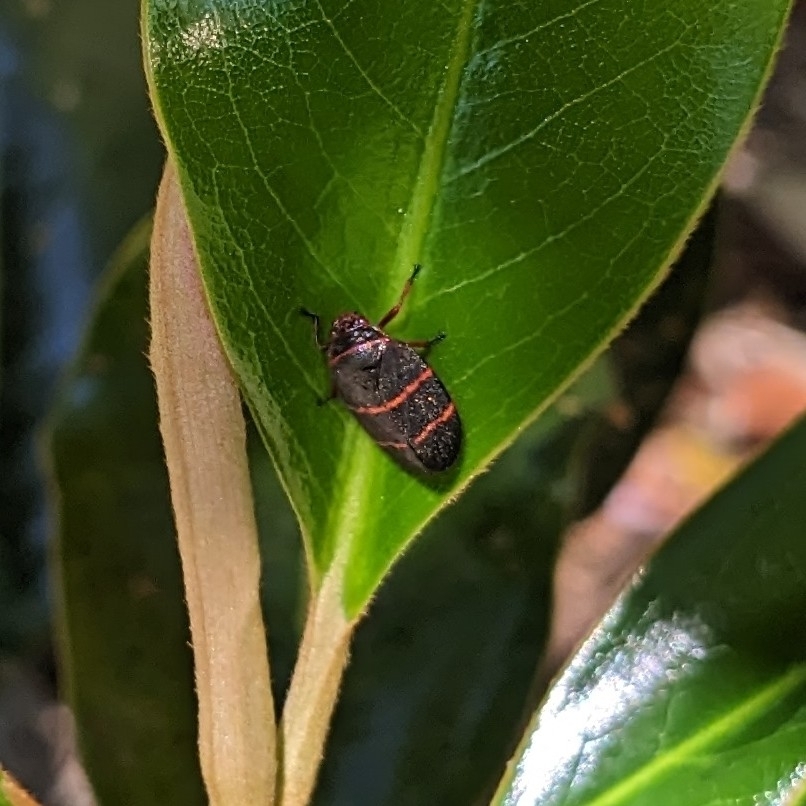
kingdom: Animalia
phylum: Arthropoda
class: Insecta
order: Hemiptera
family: Cercopidae
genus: Prosapia
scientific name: Prosapia bicincta
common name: Twolined spittlebug
